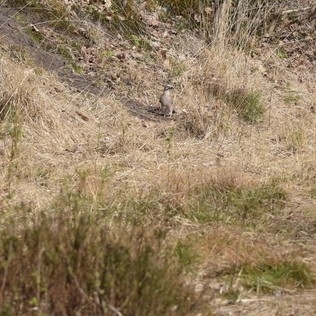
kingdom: Animalia
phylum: Chordata
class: Aves
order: Passeriformes
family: Corvidae
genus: Garrulus
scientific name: Garrulus glandarius
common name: Eurasian jay
